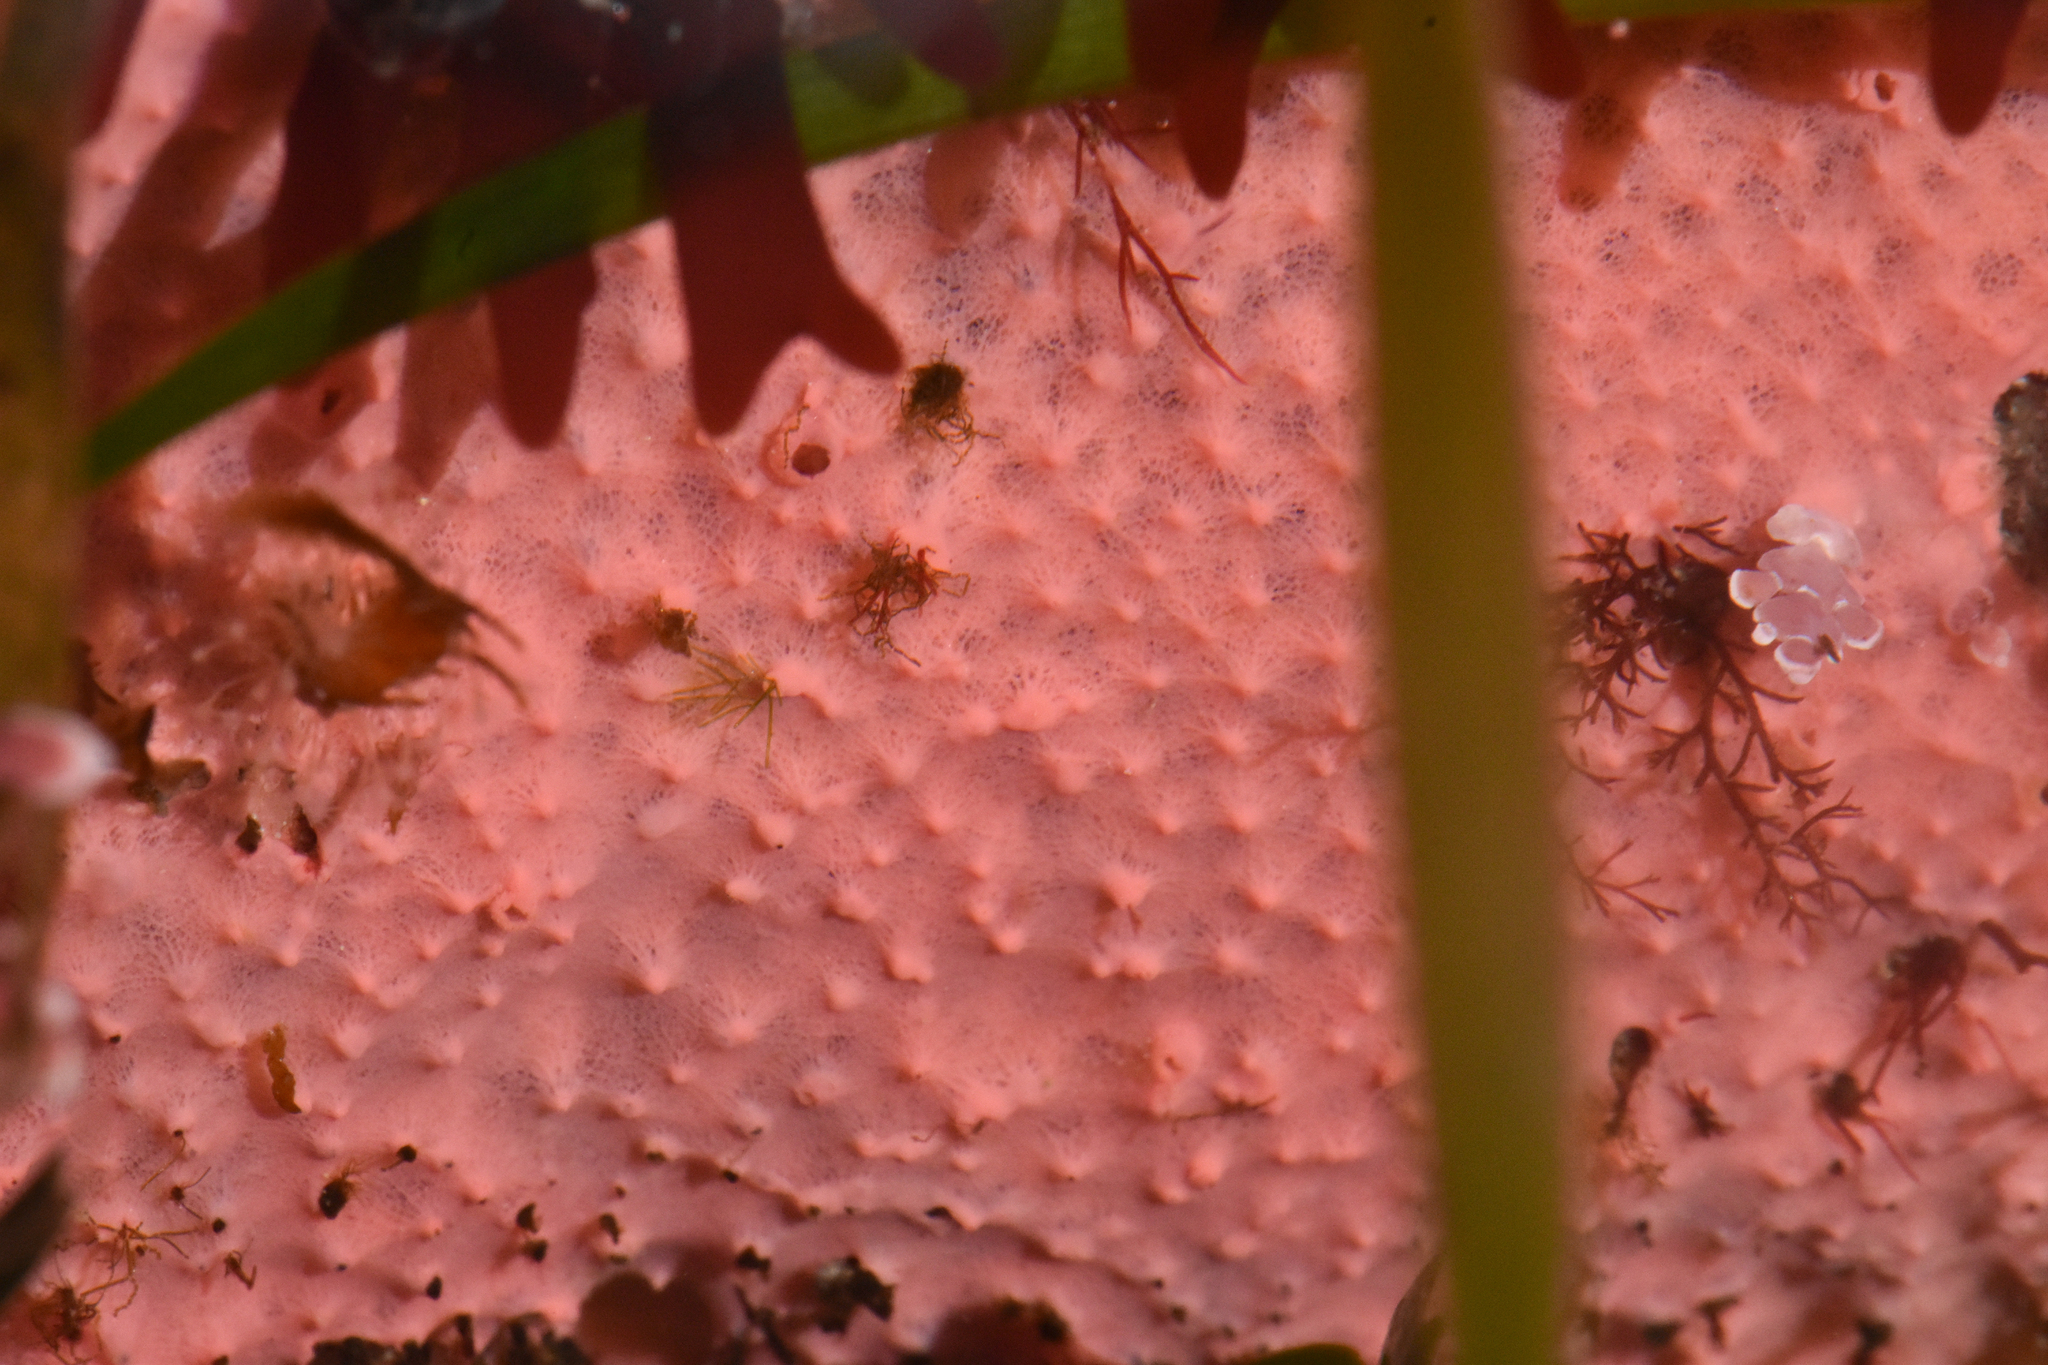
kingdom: Animalia
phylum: Porifera
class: Demospongiae
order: Dendroceratida
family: Darwinellidae
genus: Aplysilla
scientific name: Aplysilla glacialis
